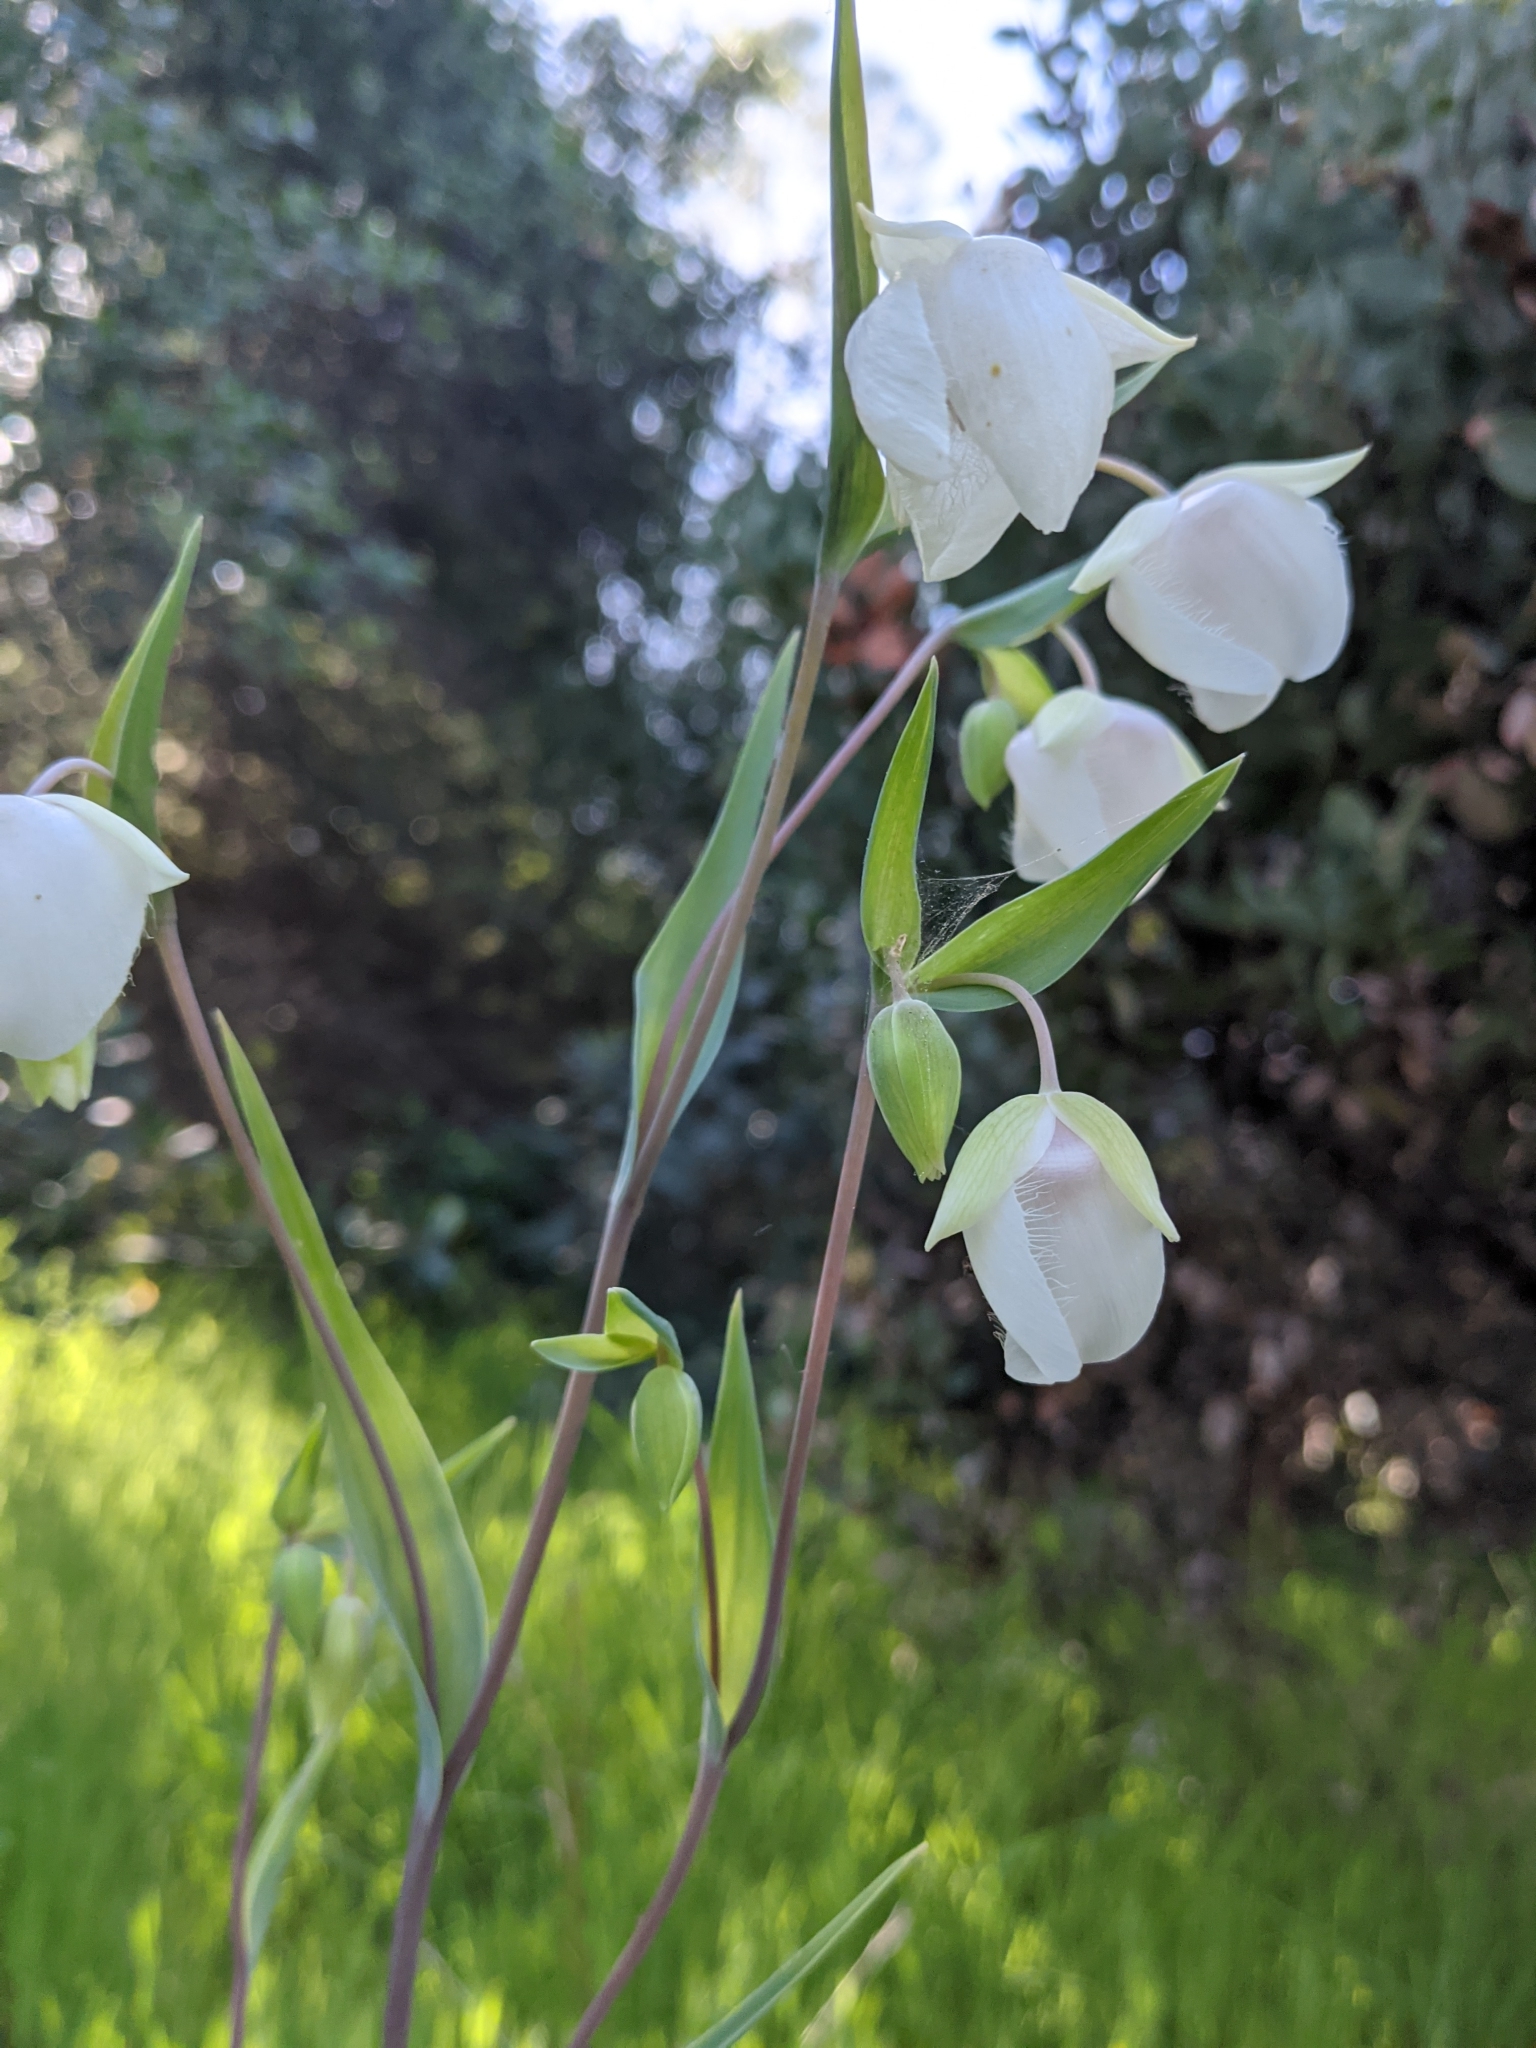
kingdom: Plantae
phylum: Tracheophyta
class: Liliopsida
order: Liliales
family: Liliaceae
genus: Calochortus
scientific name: Calochortus albus
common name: Fairy-lantern
